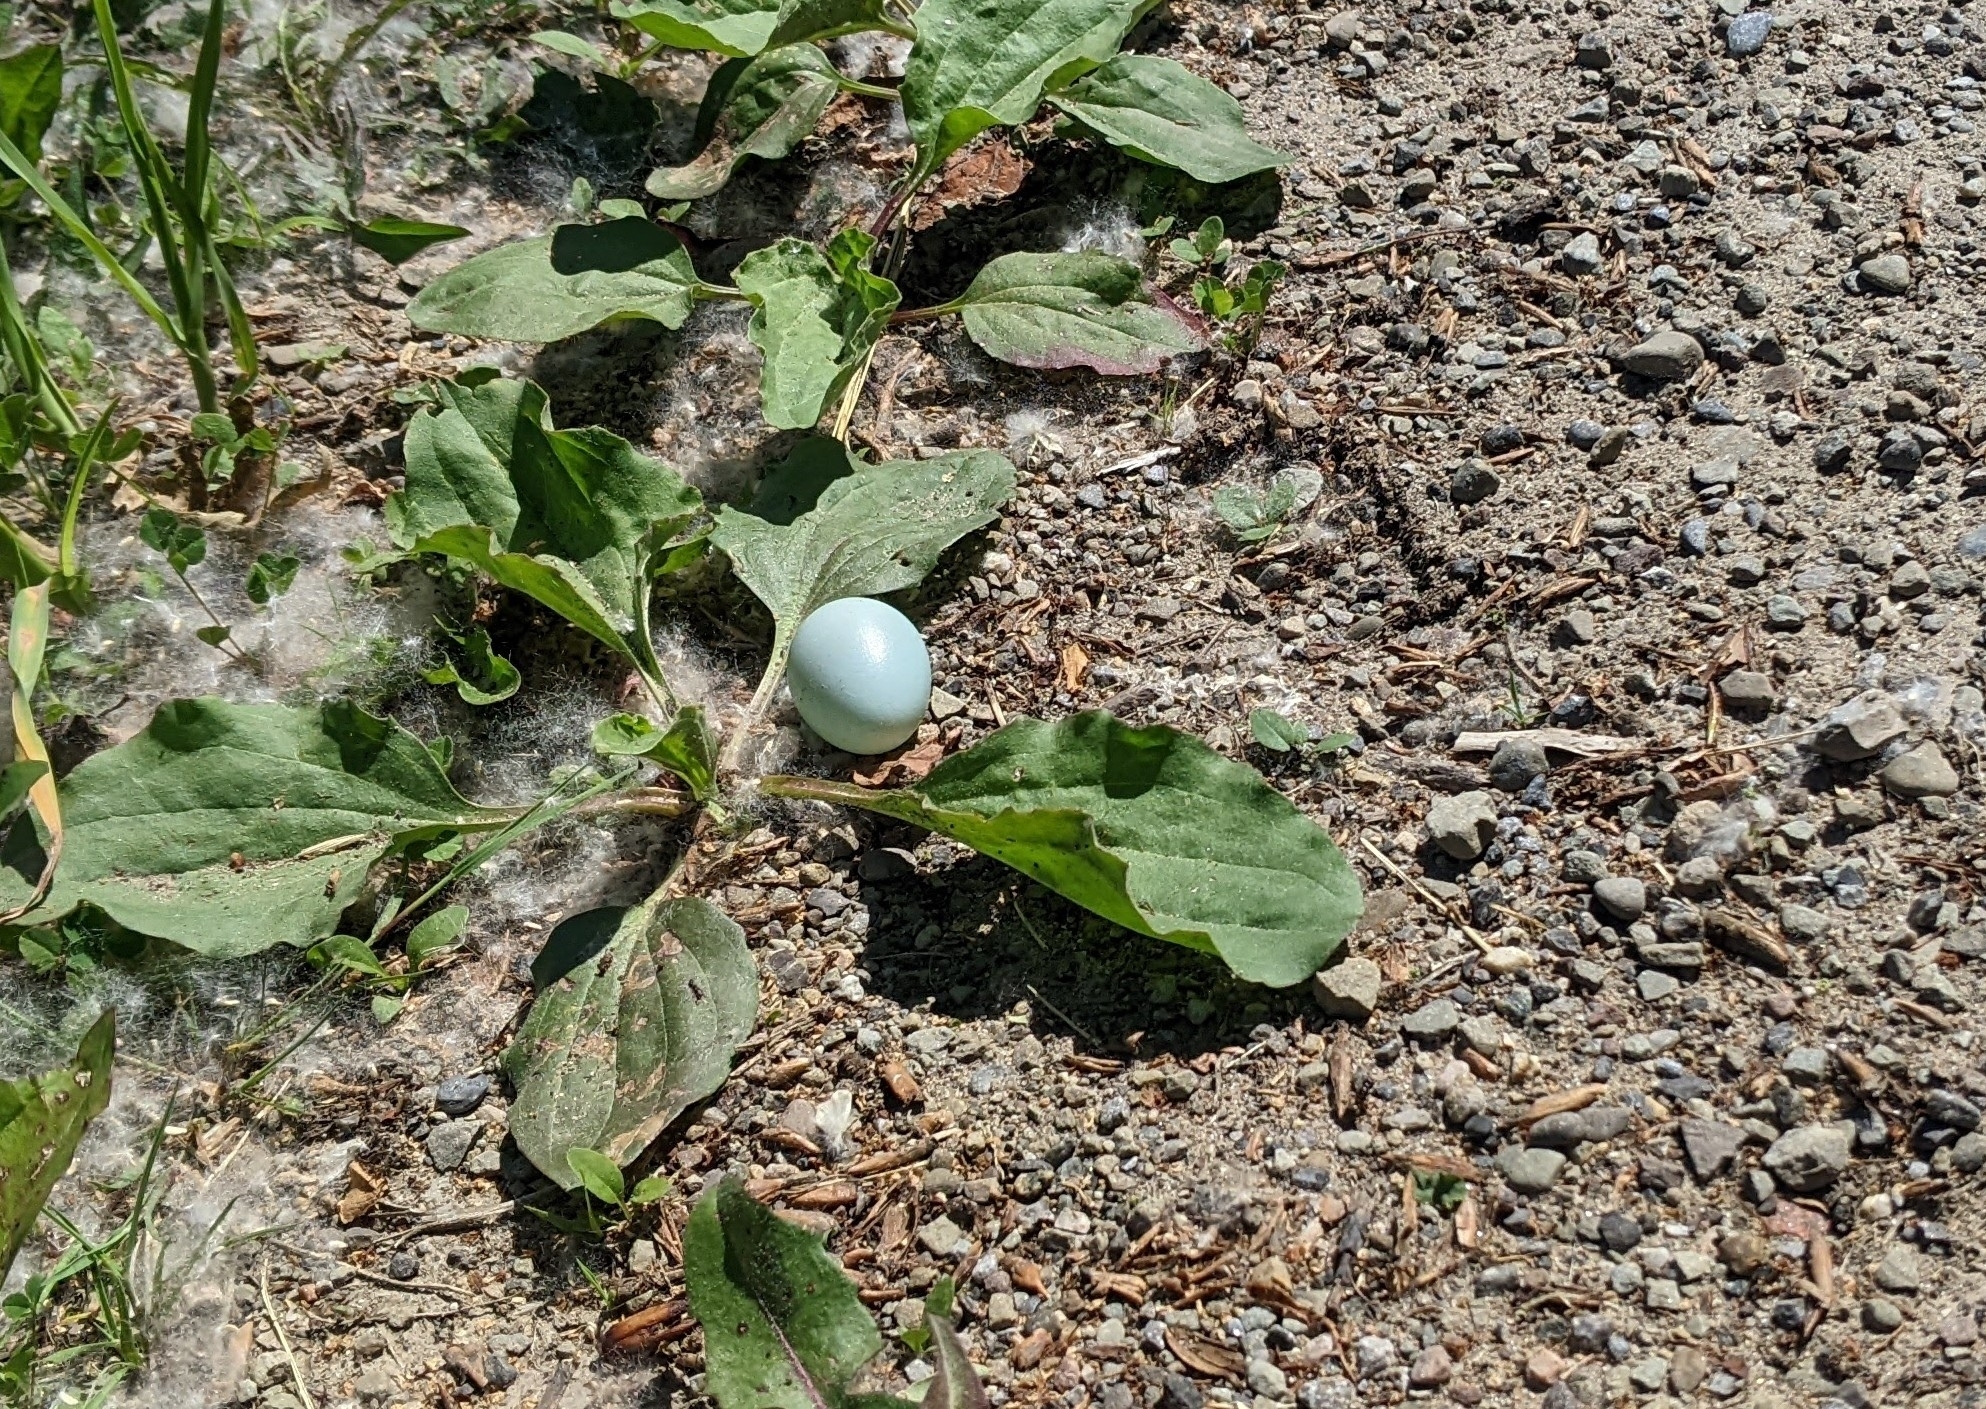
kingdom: Animalia
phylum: Chordata
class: Aves
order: Passeriformes
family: Turdidae
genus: Turdus
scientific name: Turdus migratorius
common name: American robin
